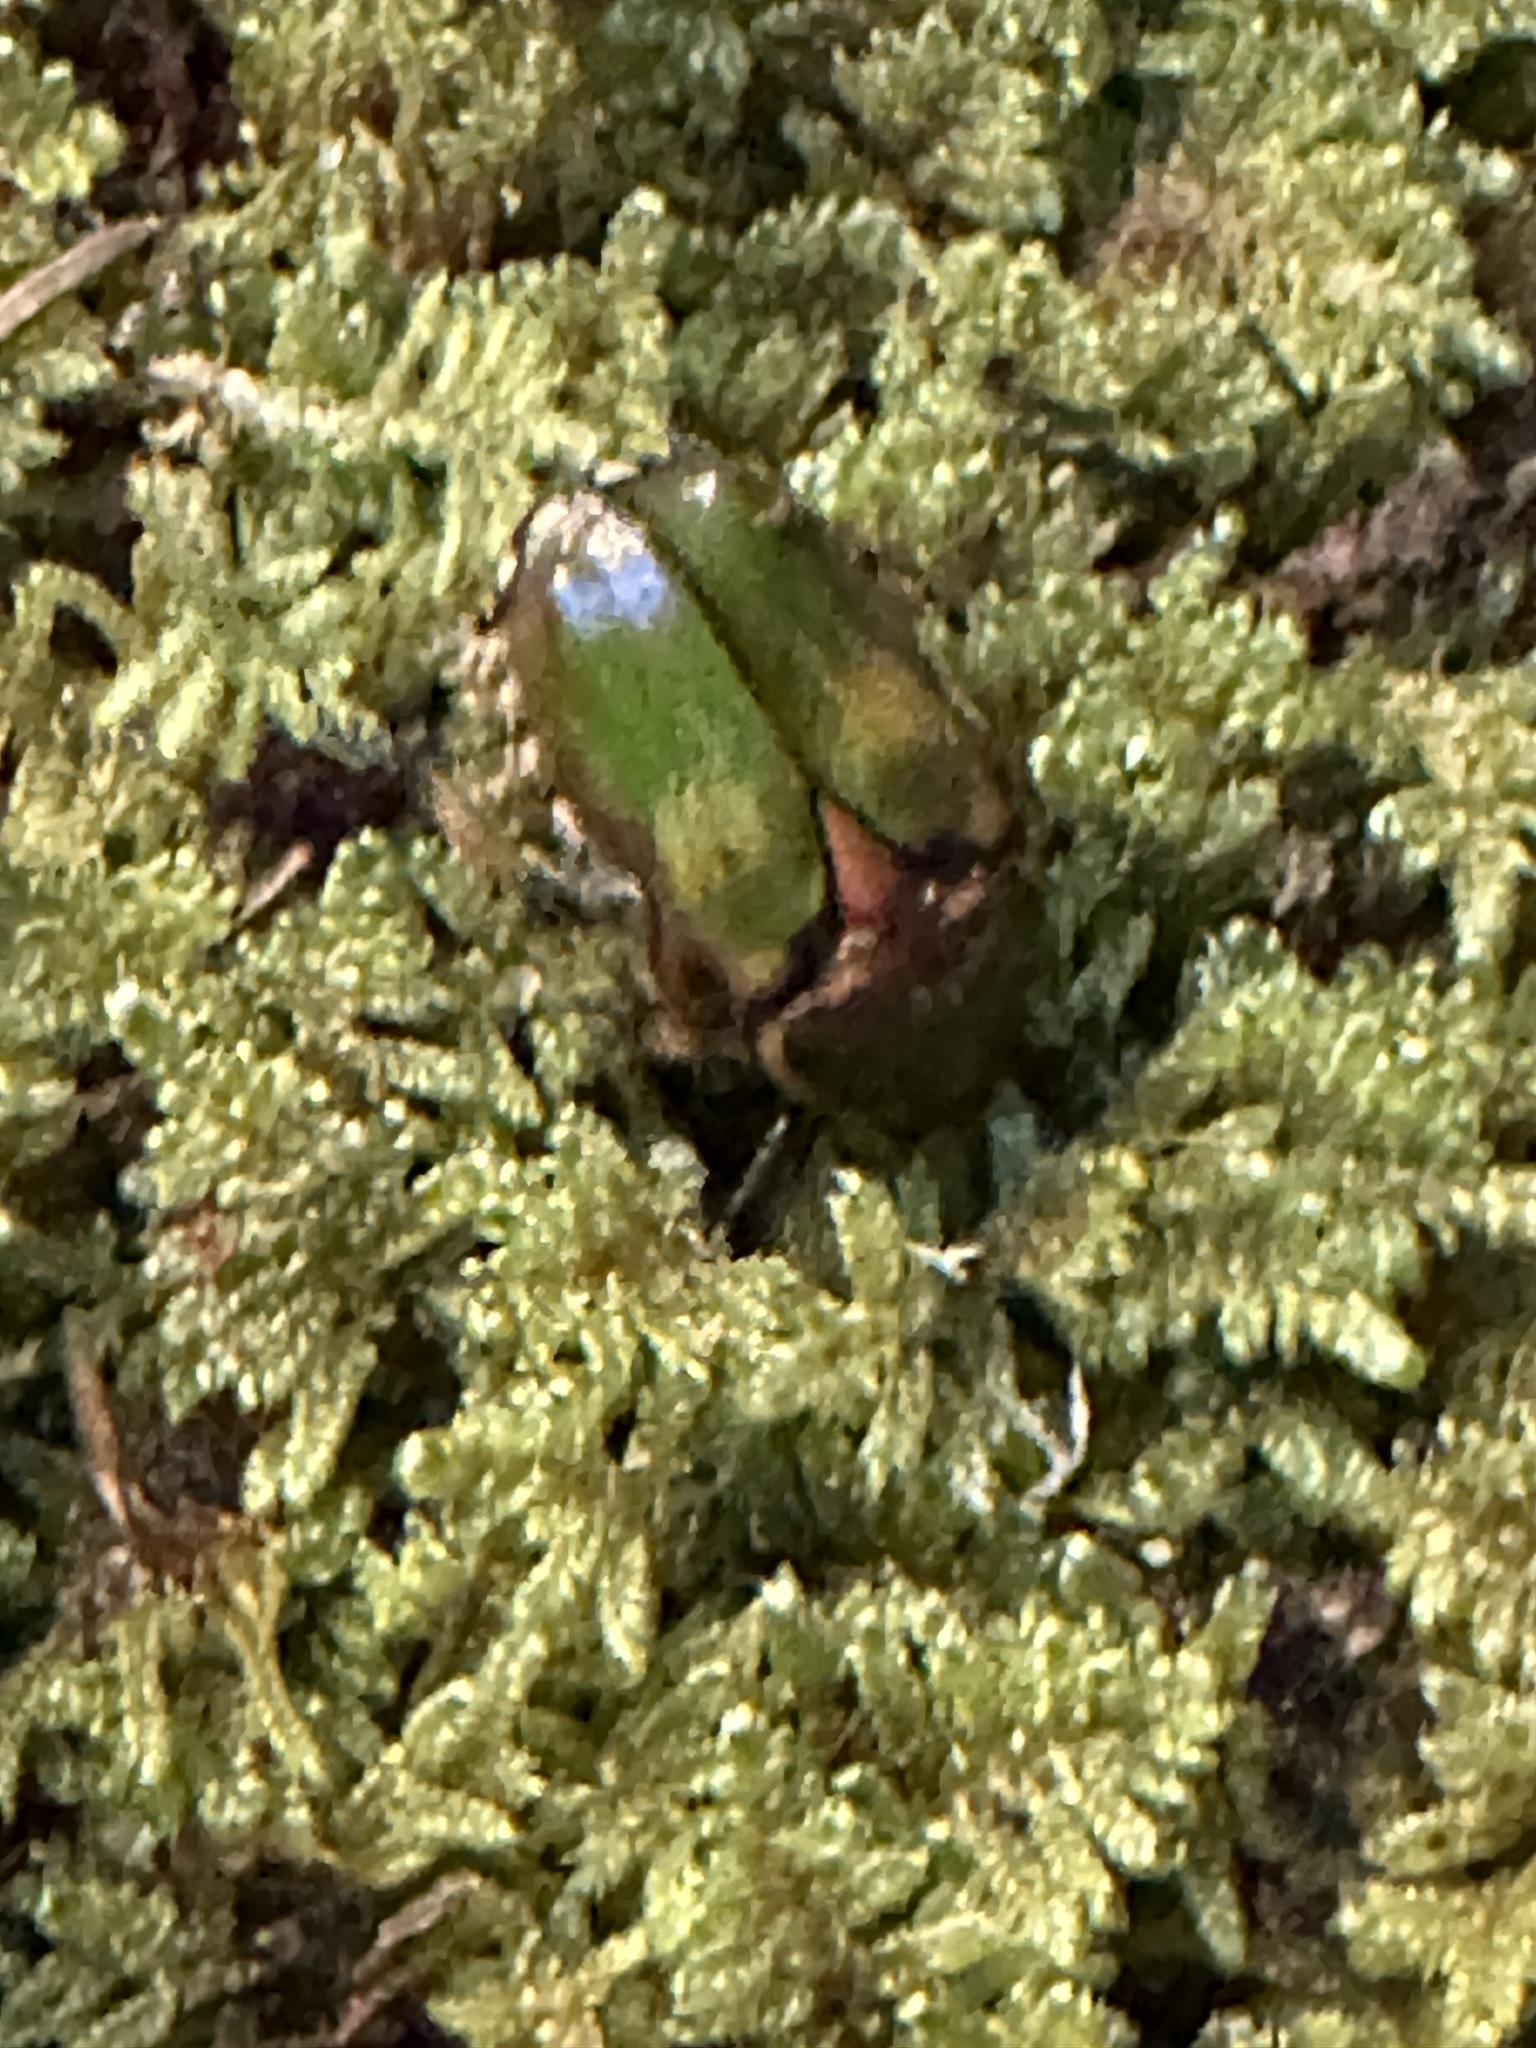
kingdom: Animalia
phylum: Arthropoda
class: Insecta
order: Coleoptera
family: Scarabaeidae
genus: Euphoria
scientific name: Euphoria fulgida
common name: Emerald euphoria
